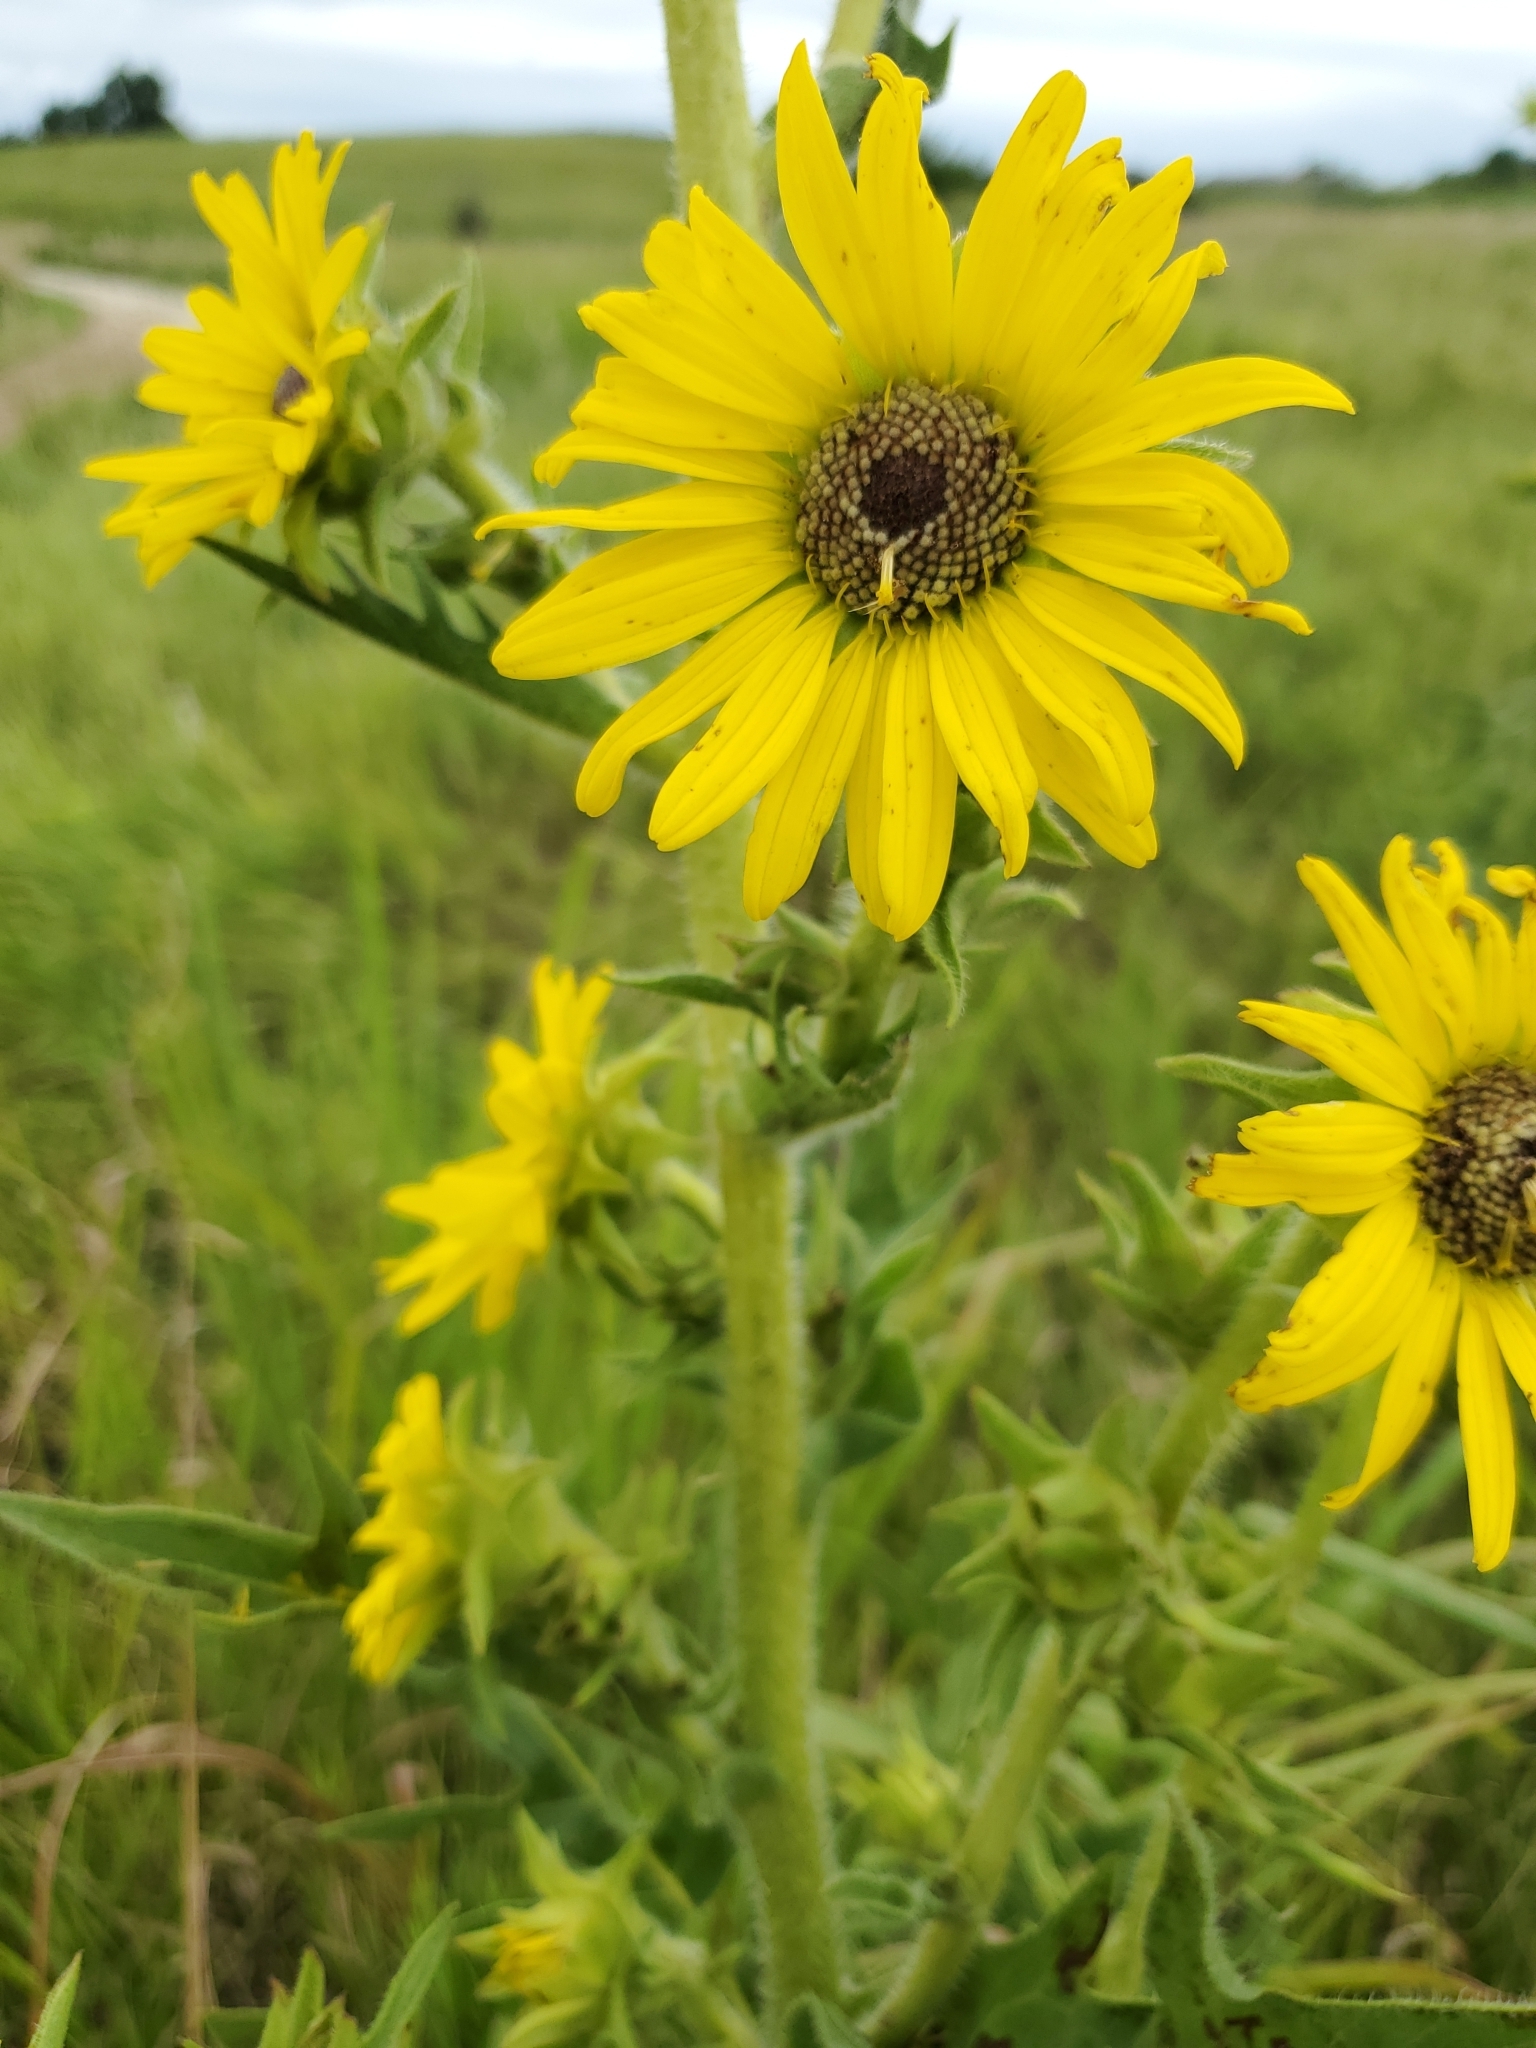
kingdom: Plantae
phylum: Tracheophyta
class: Magnoliopsida
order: Asterales
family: Asteraceae
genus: Silphium
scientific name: Silphium laciniatum
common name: Polarplant
